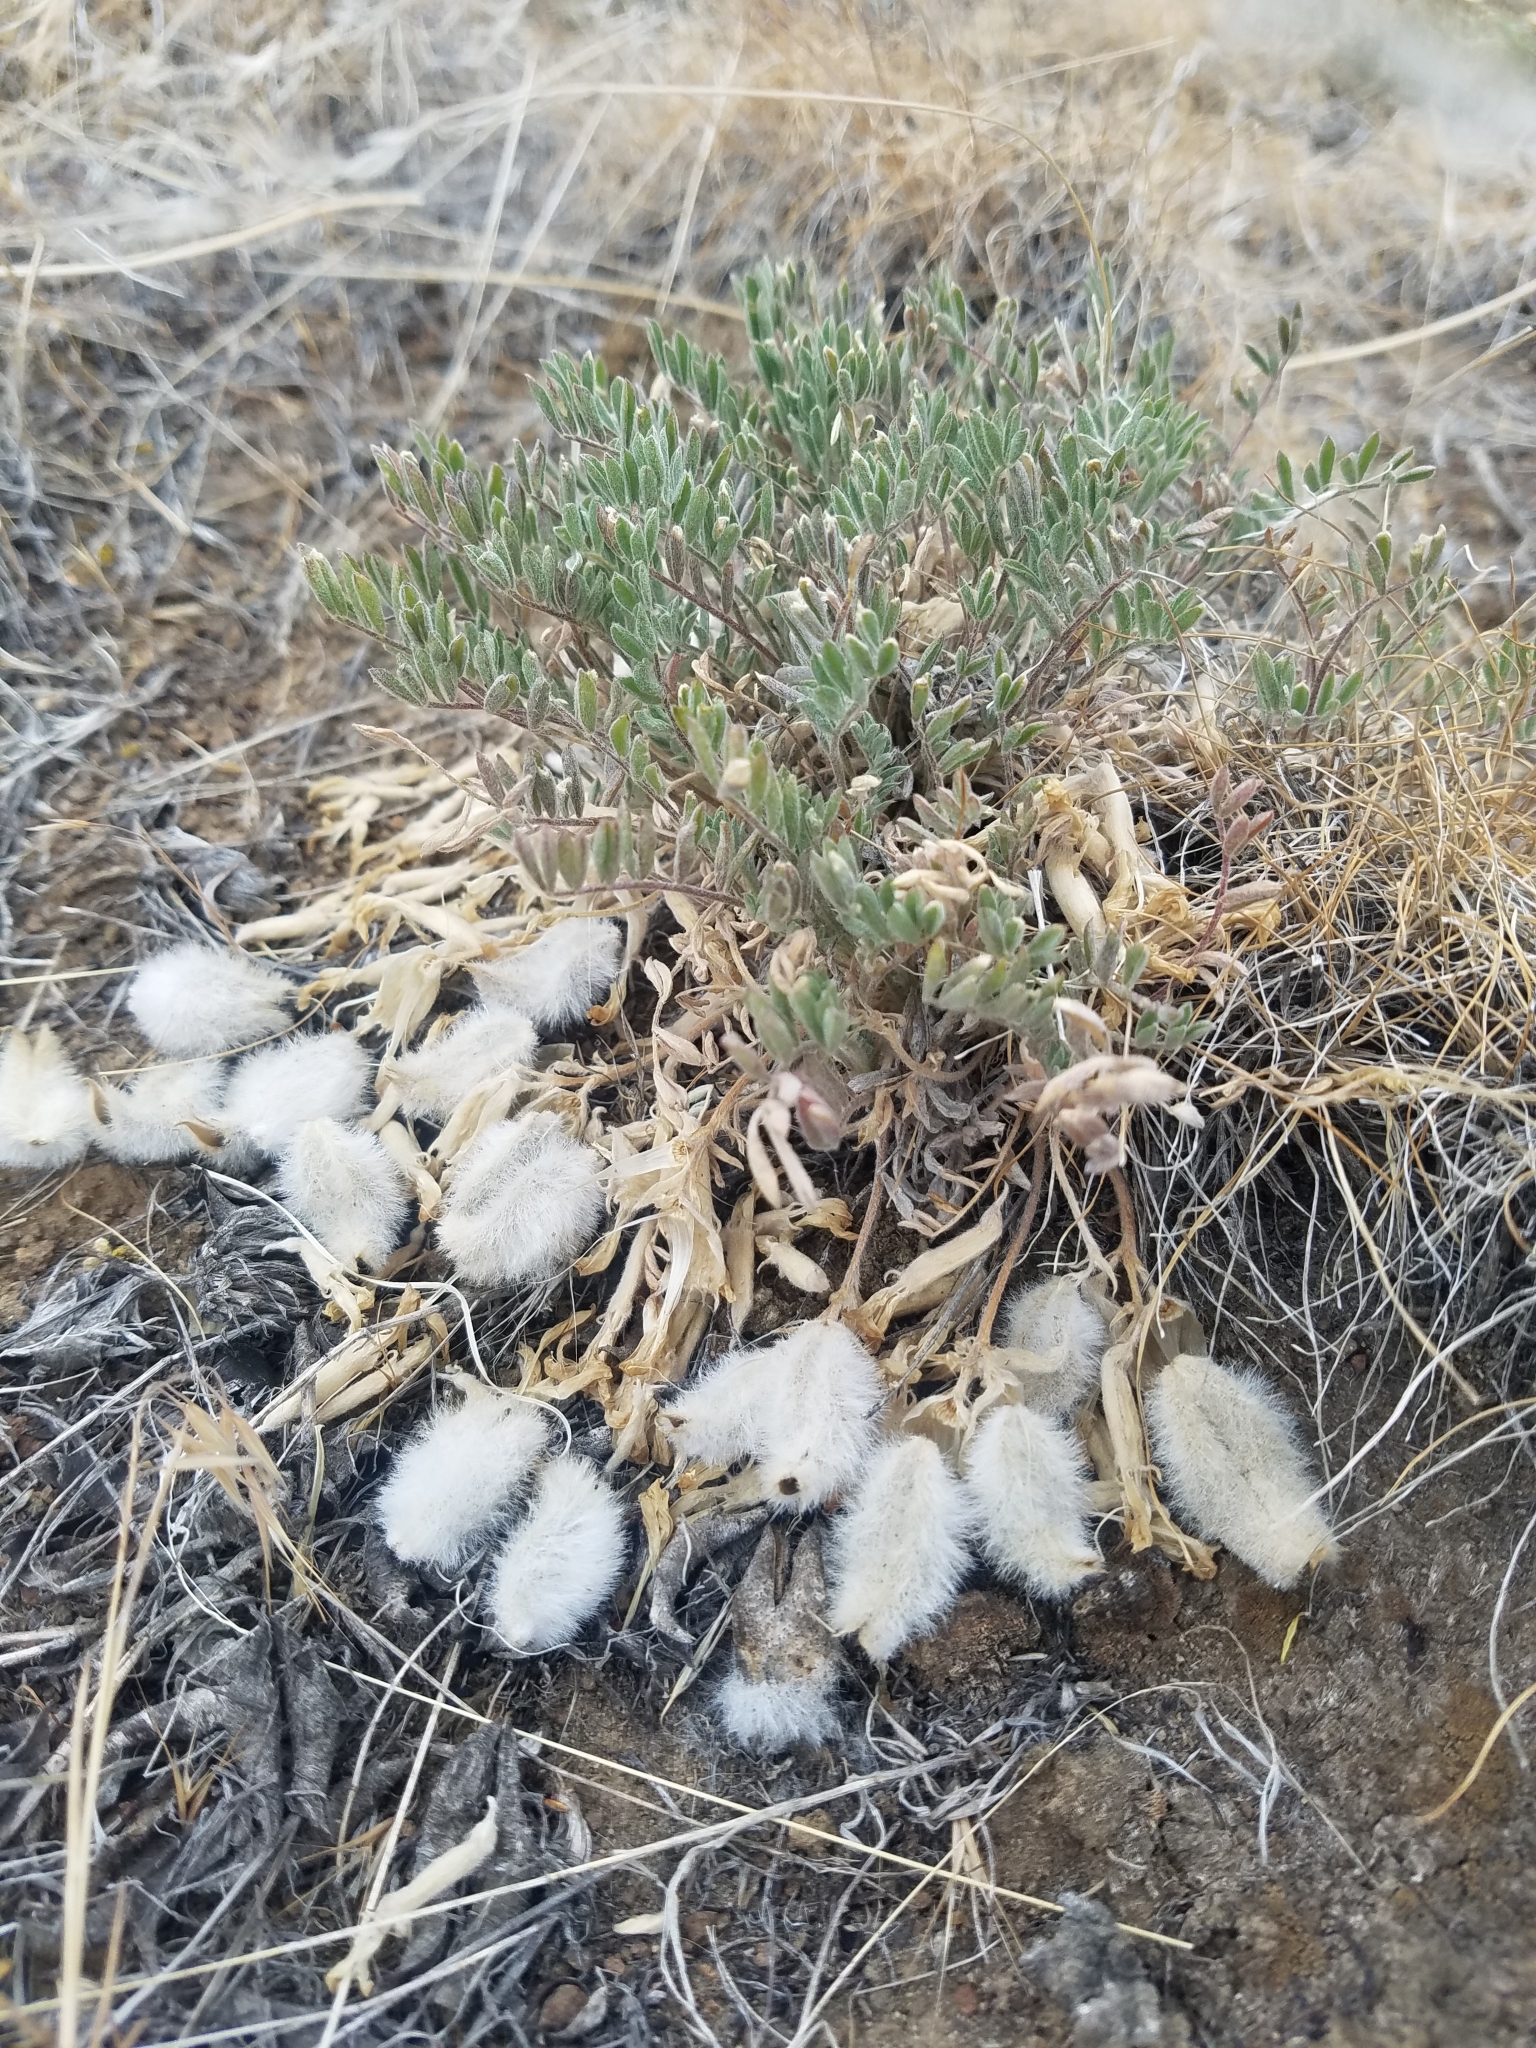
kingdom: Plantae
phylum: Tracheophyta
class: Magnoliopsida
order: Fabales
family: Fabaceae
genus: Astragalus
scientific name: Astragalus purshii
